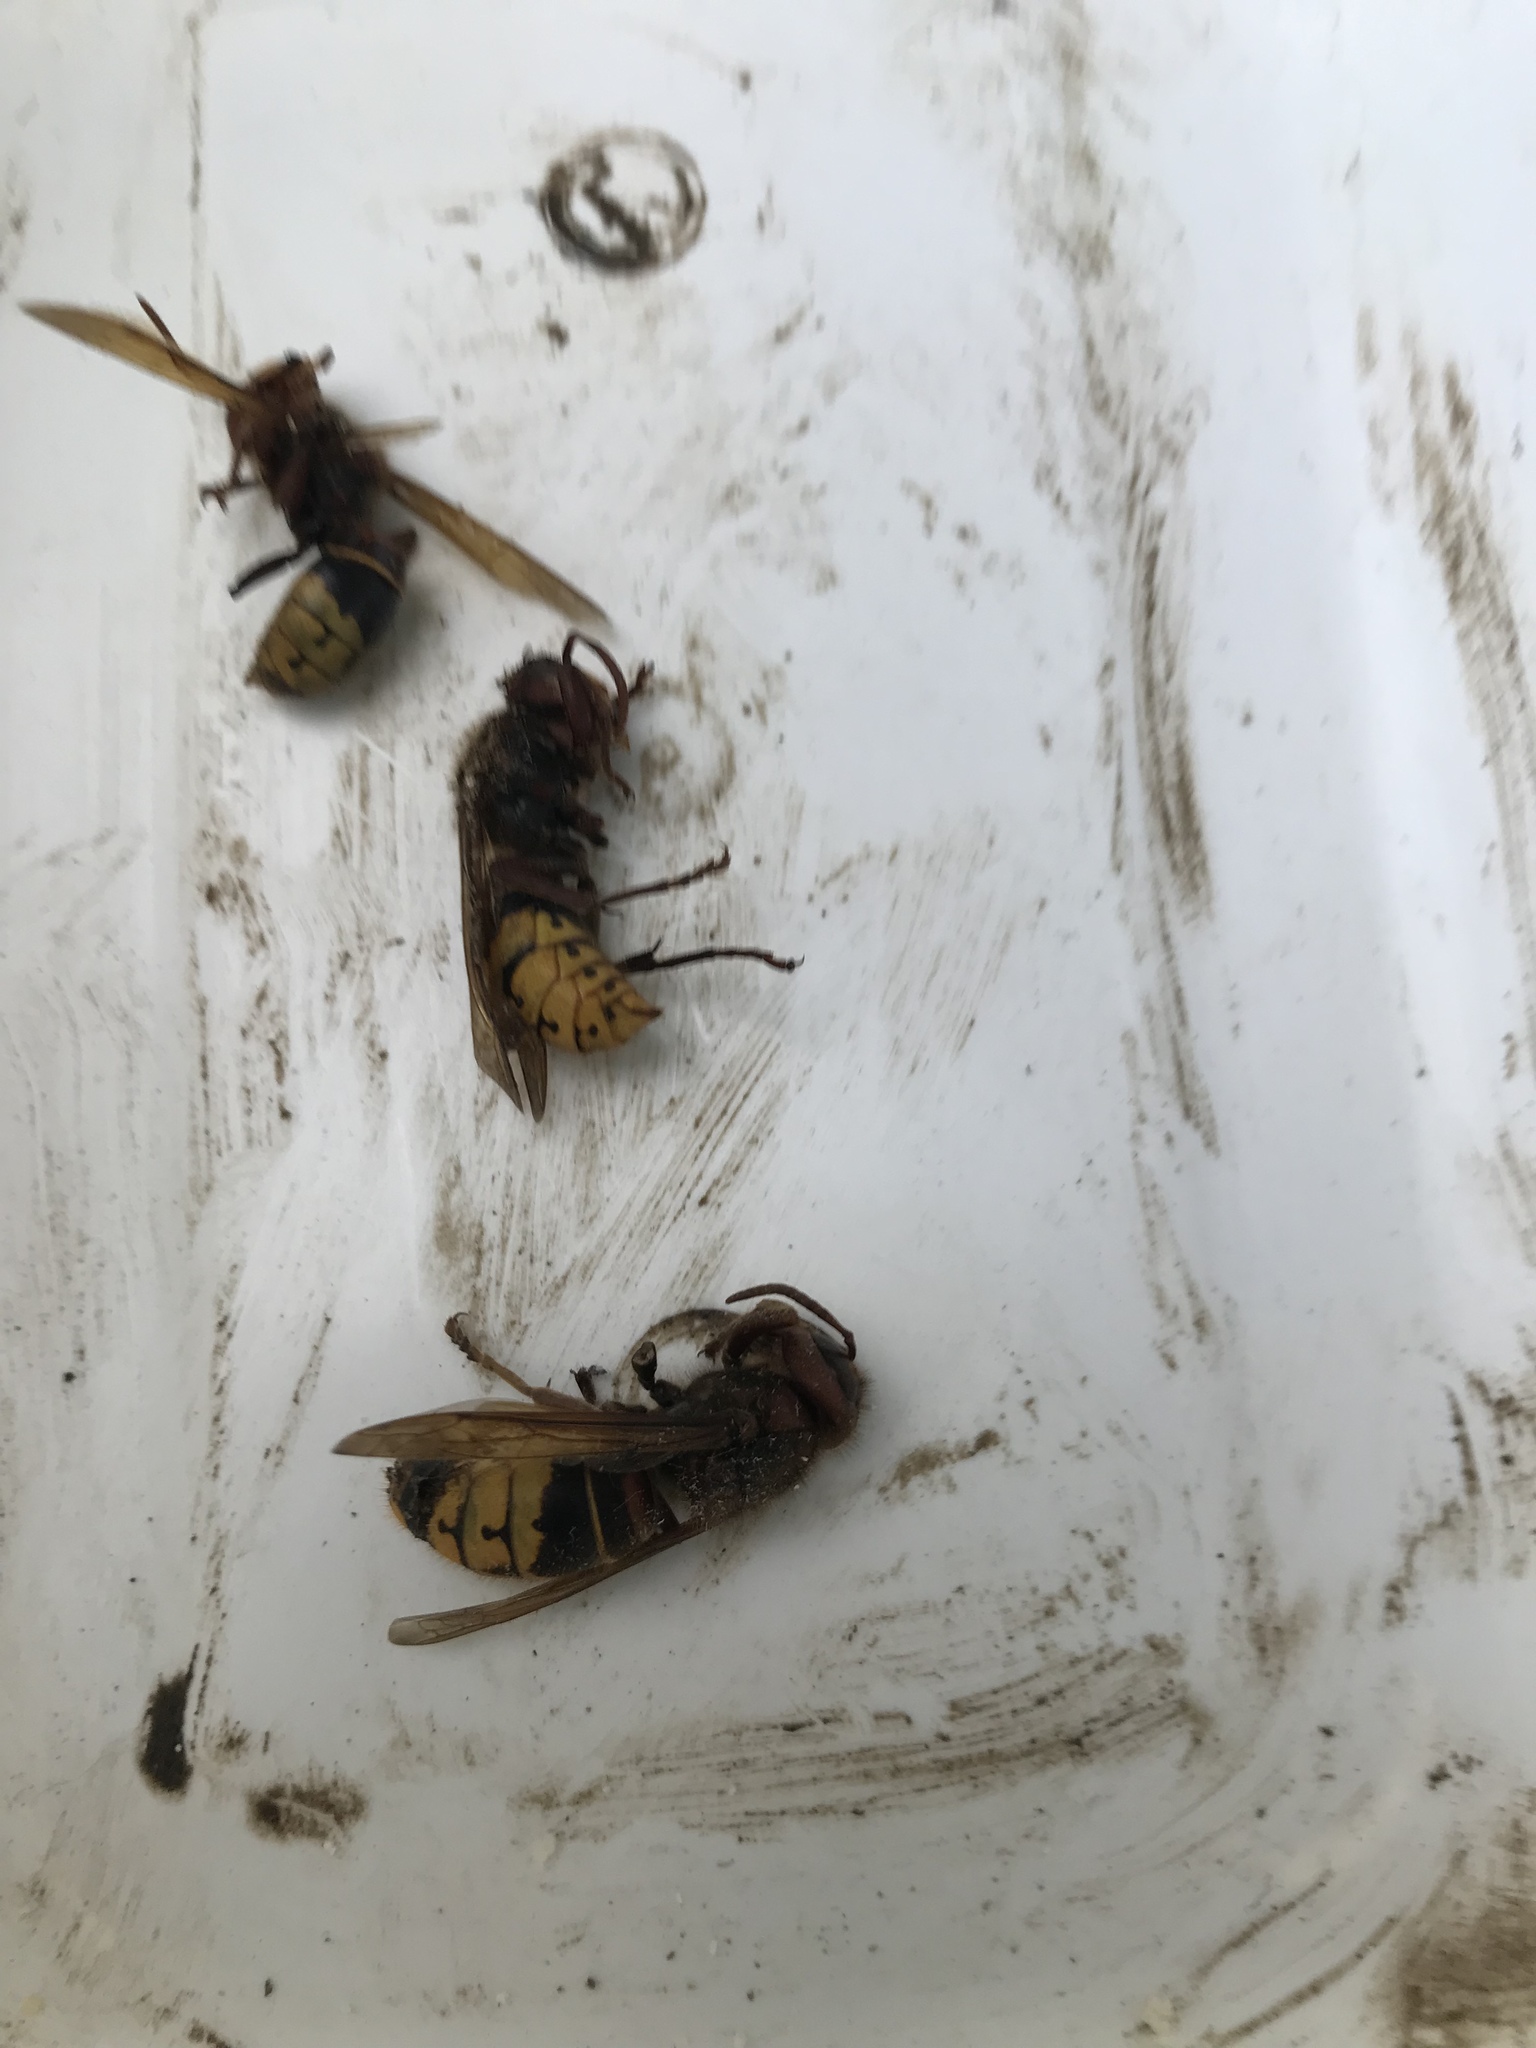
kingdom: Animalia
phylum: Arthropoda
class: Insecta
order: Hymenoptera
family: Vespidae
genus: Vespa
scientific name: Vespa crabro
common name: Hornet
